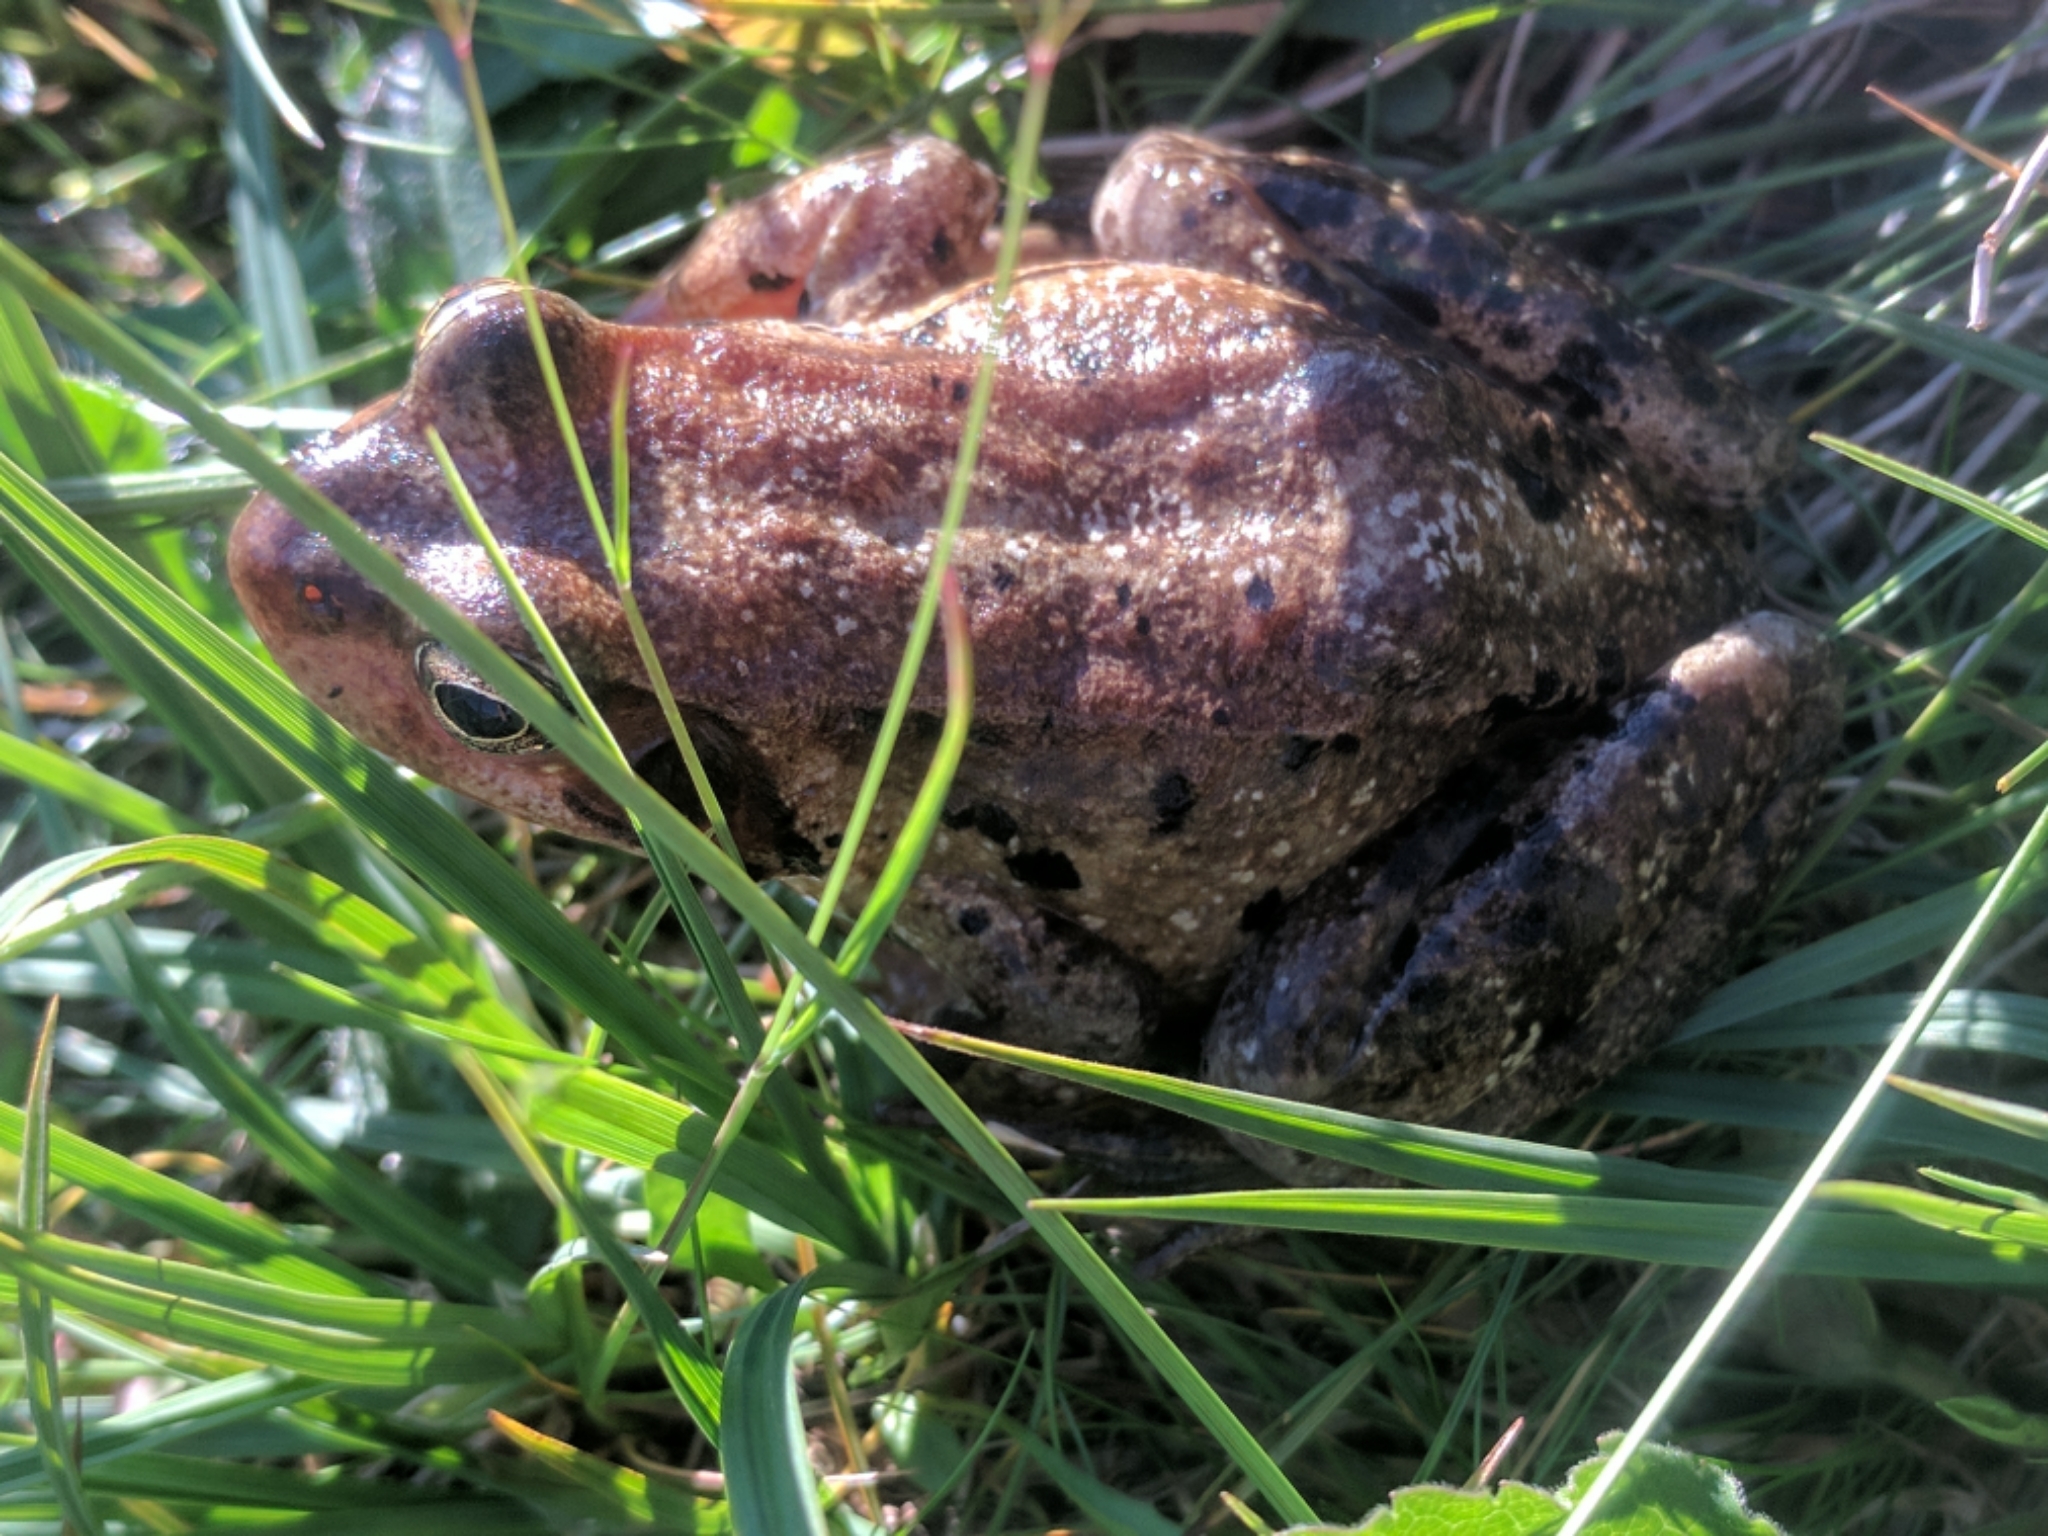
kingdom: Animalia
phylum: Chordata
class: Amphibia
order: Anura
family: Ranidae
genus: Rana
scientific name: Rana temporaria
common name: Common frog
